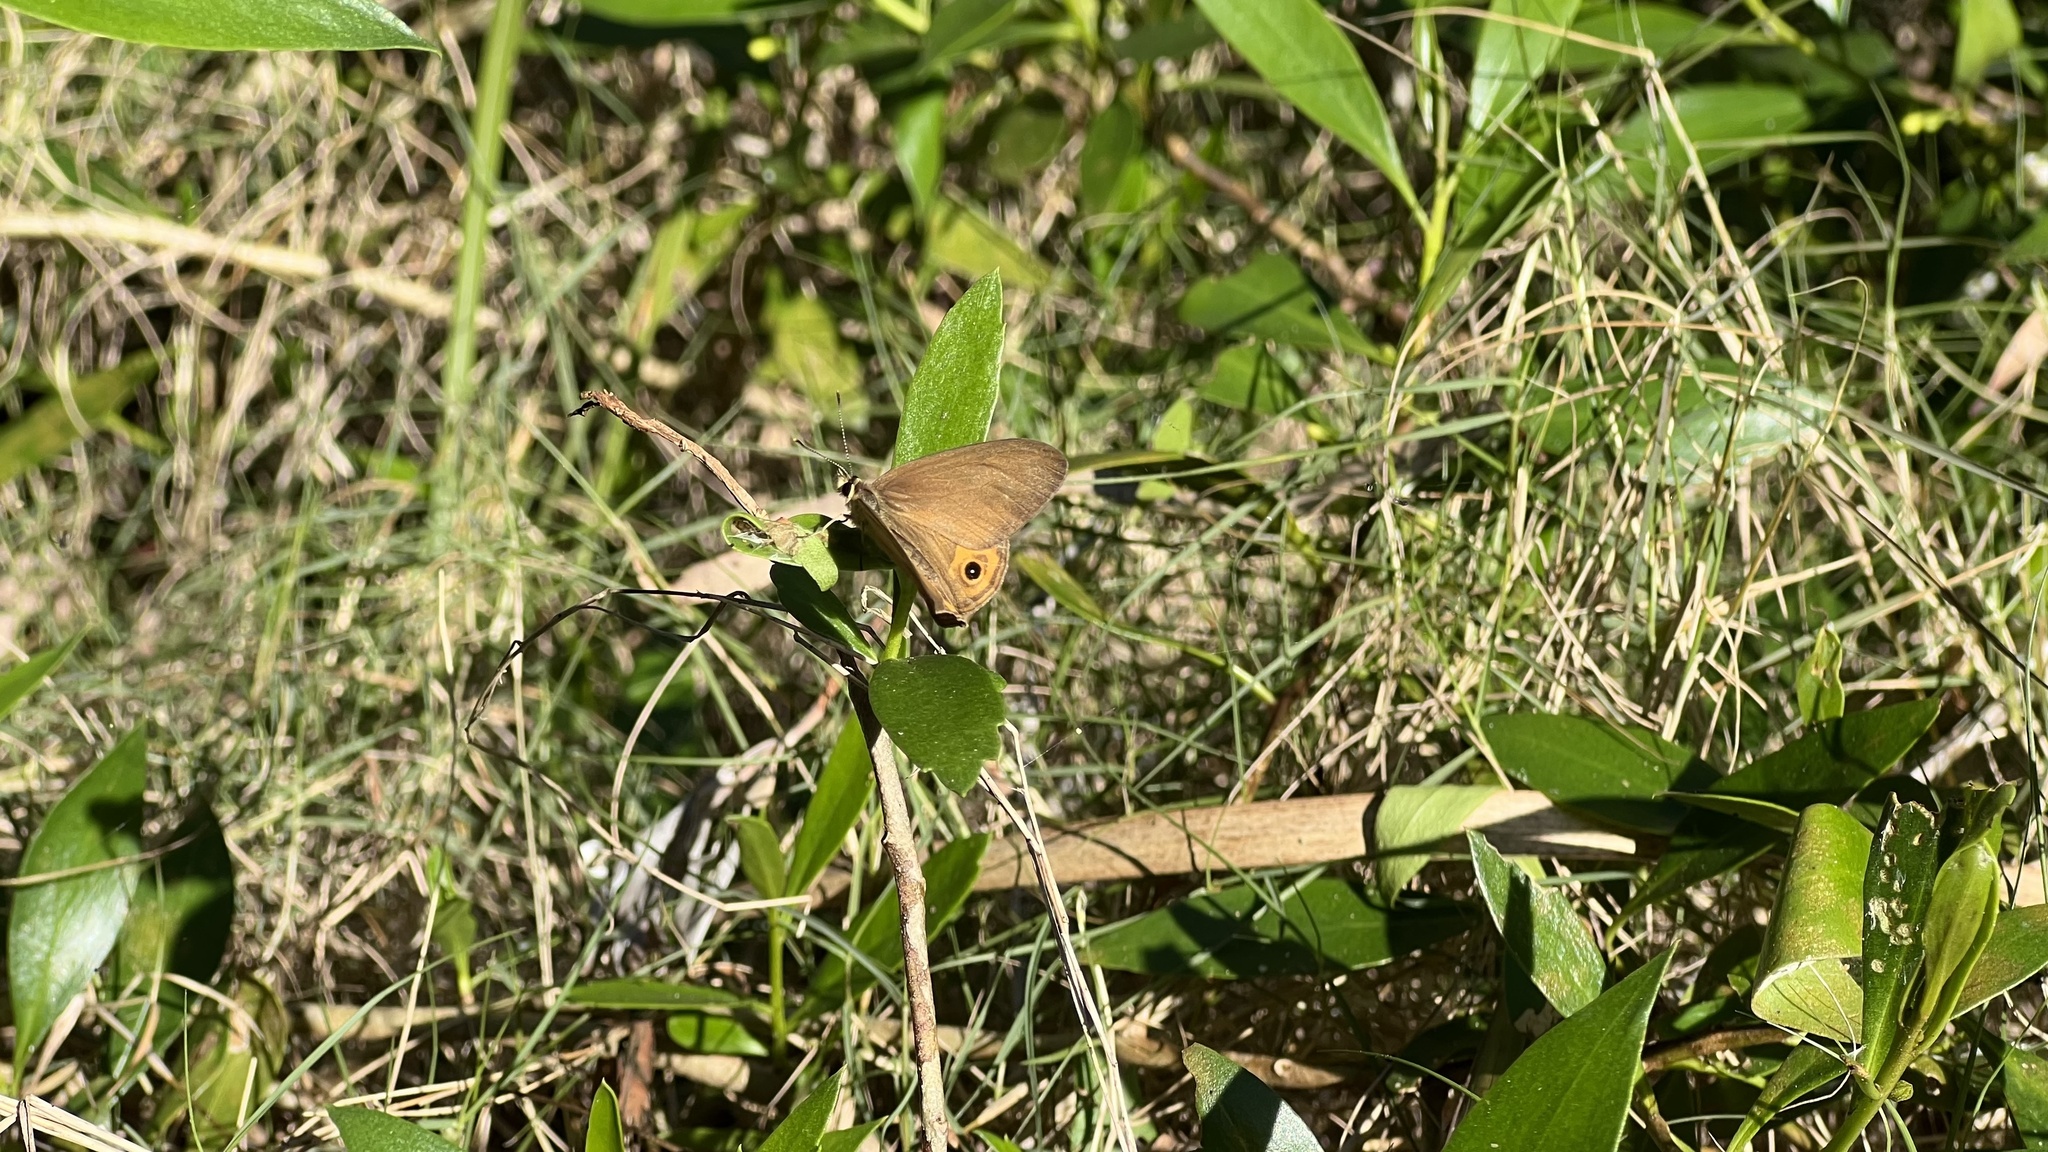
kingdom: Animalia
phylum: Arthropoda
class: Insecta
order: Lepidoptera
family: Nymphalidae
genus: Hypocysta
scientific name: Hypocysta pseudirius
